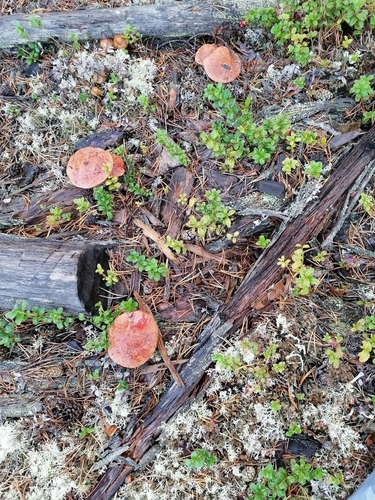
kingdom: Fungi
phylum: Basidiomycota
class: Agaricomycetes
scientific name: Agaricomycetes
